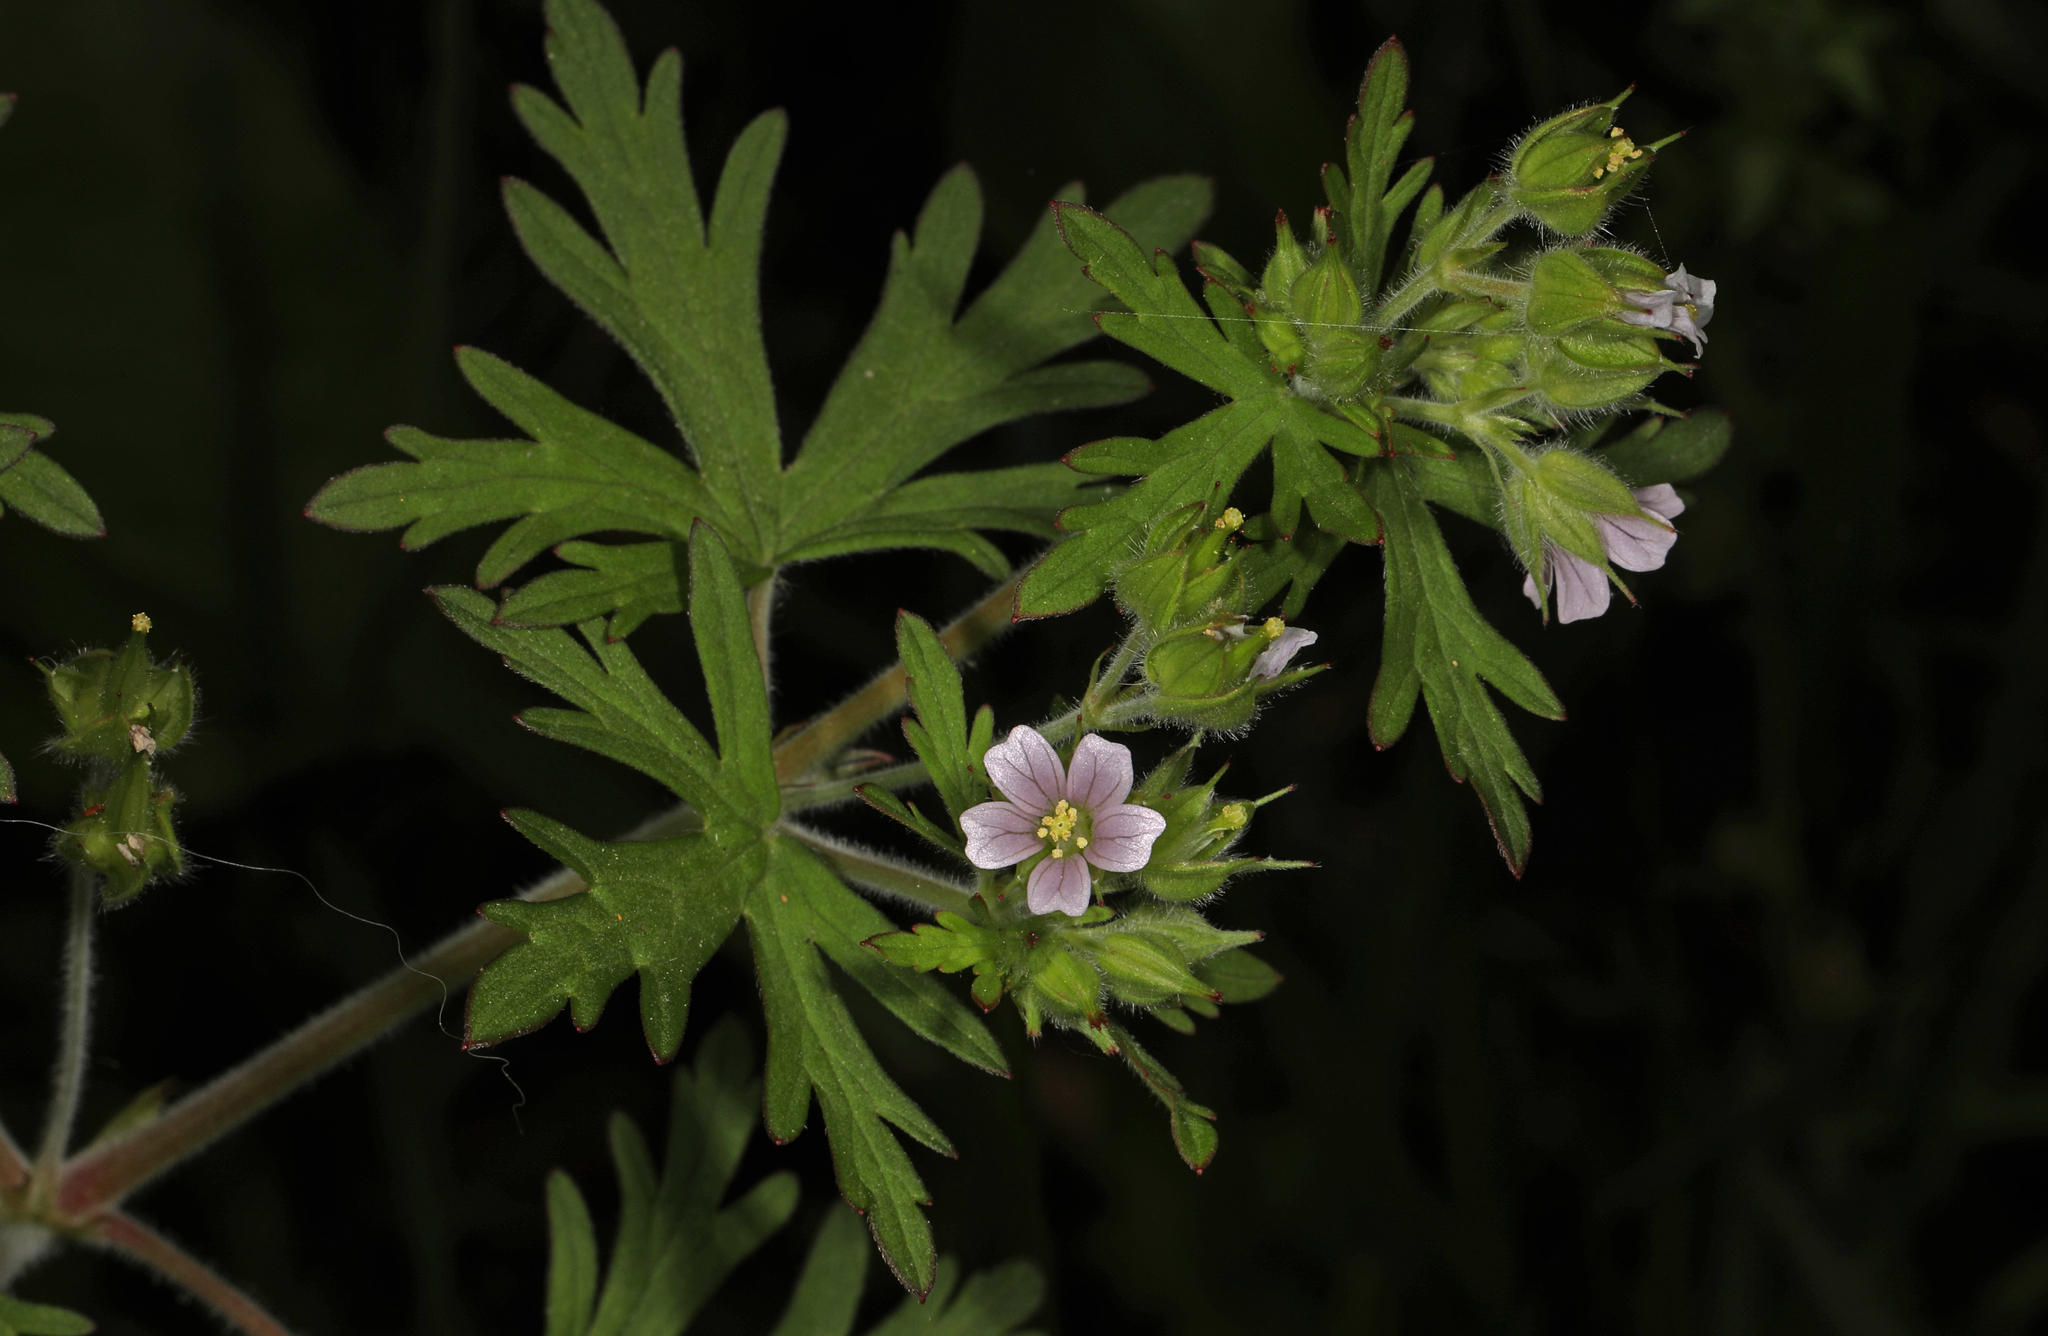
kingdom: Plantae
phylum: Tracheophyta
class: Magnoliopsida
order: Geraniales
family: Geraniaceae
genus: Geranium
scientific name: Geranium carolinianum
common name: Carolina crane's-bill
